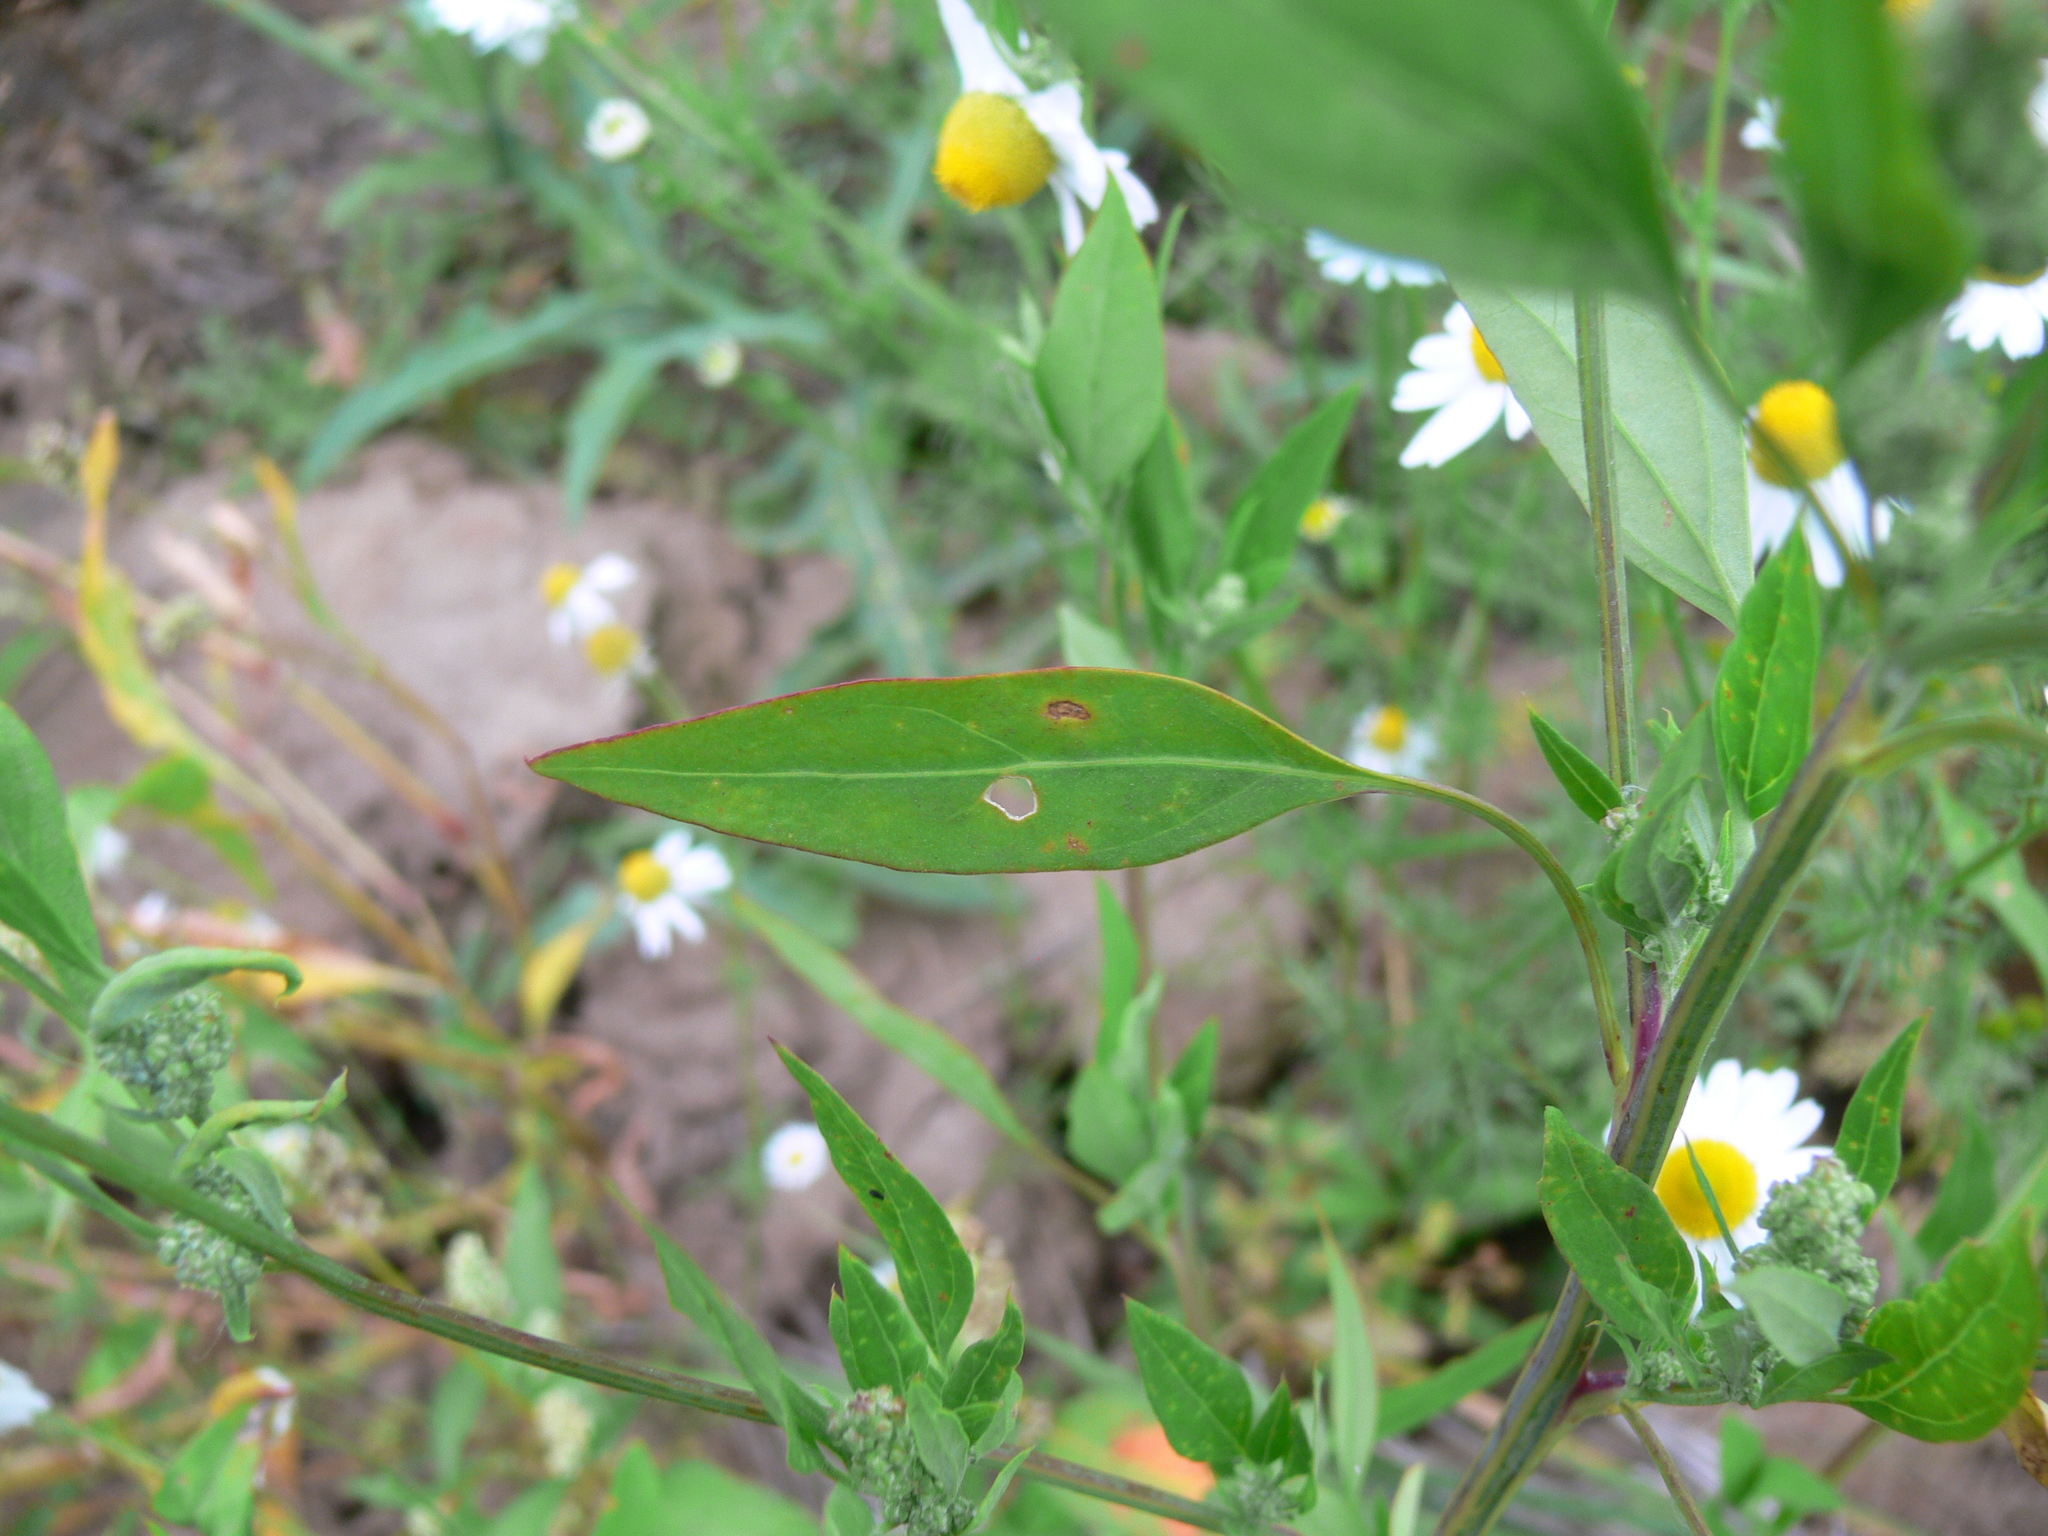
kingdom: Plantae
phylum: Tracheophyta
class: Magnoliopsida
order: Caryophyllales
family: Amaranthaceae
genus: Chenopodium
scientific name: Chenopodium album
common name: Fat-hen
